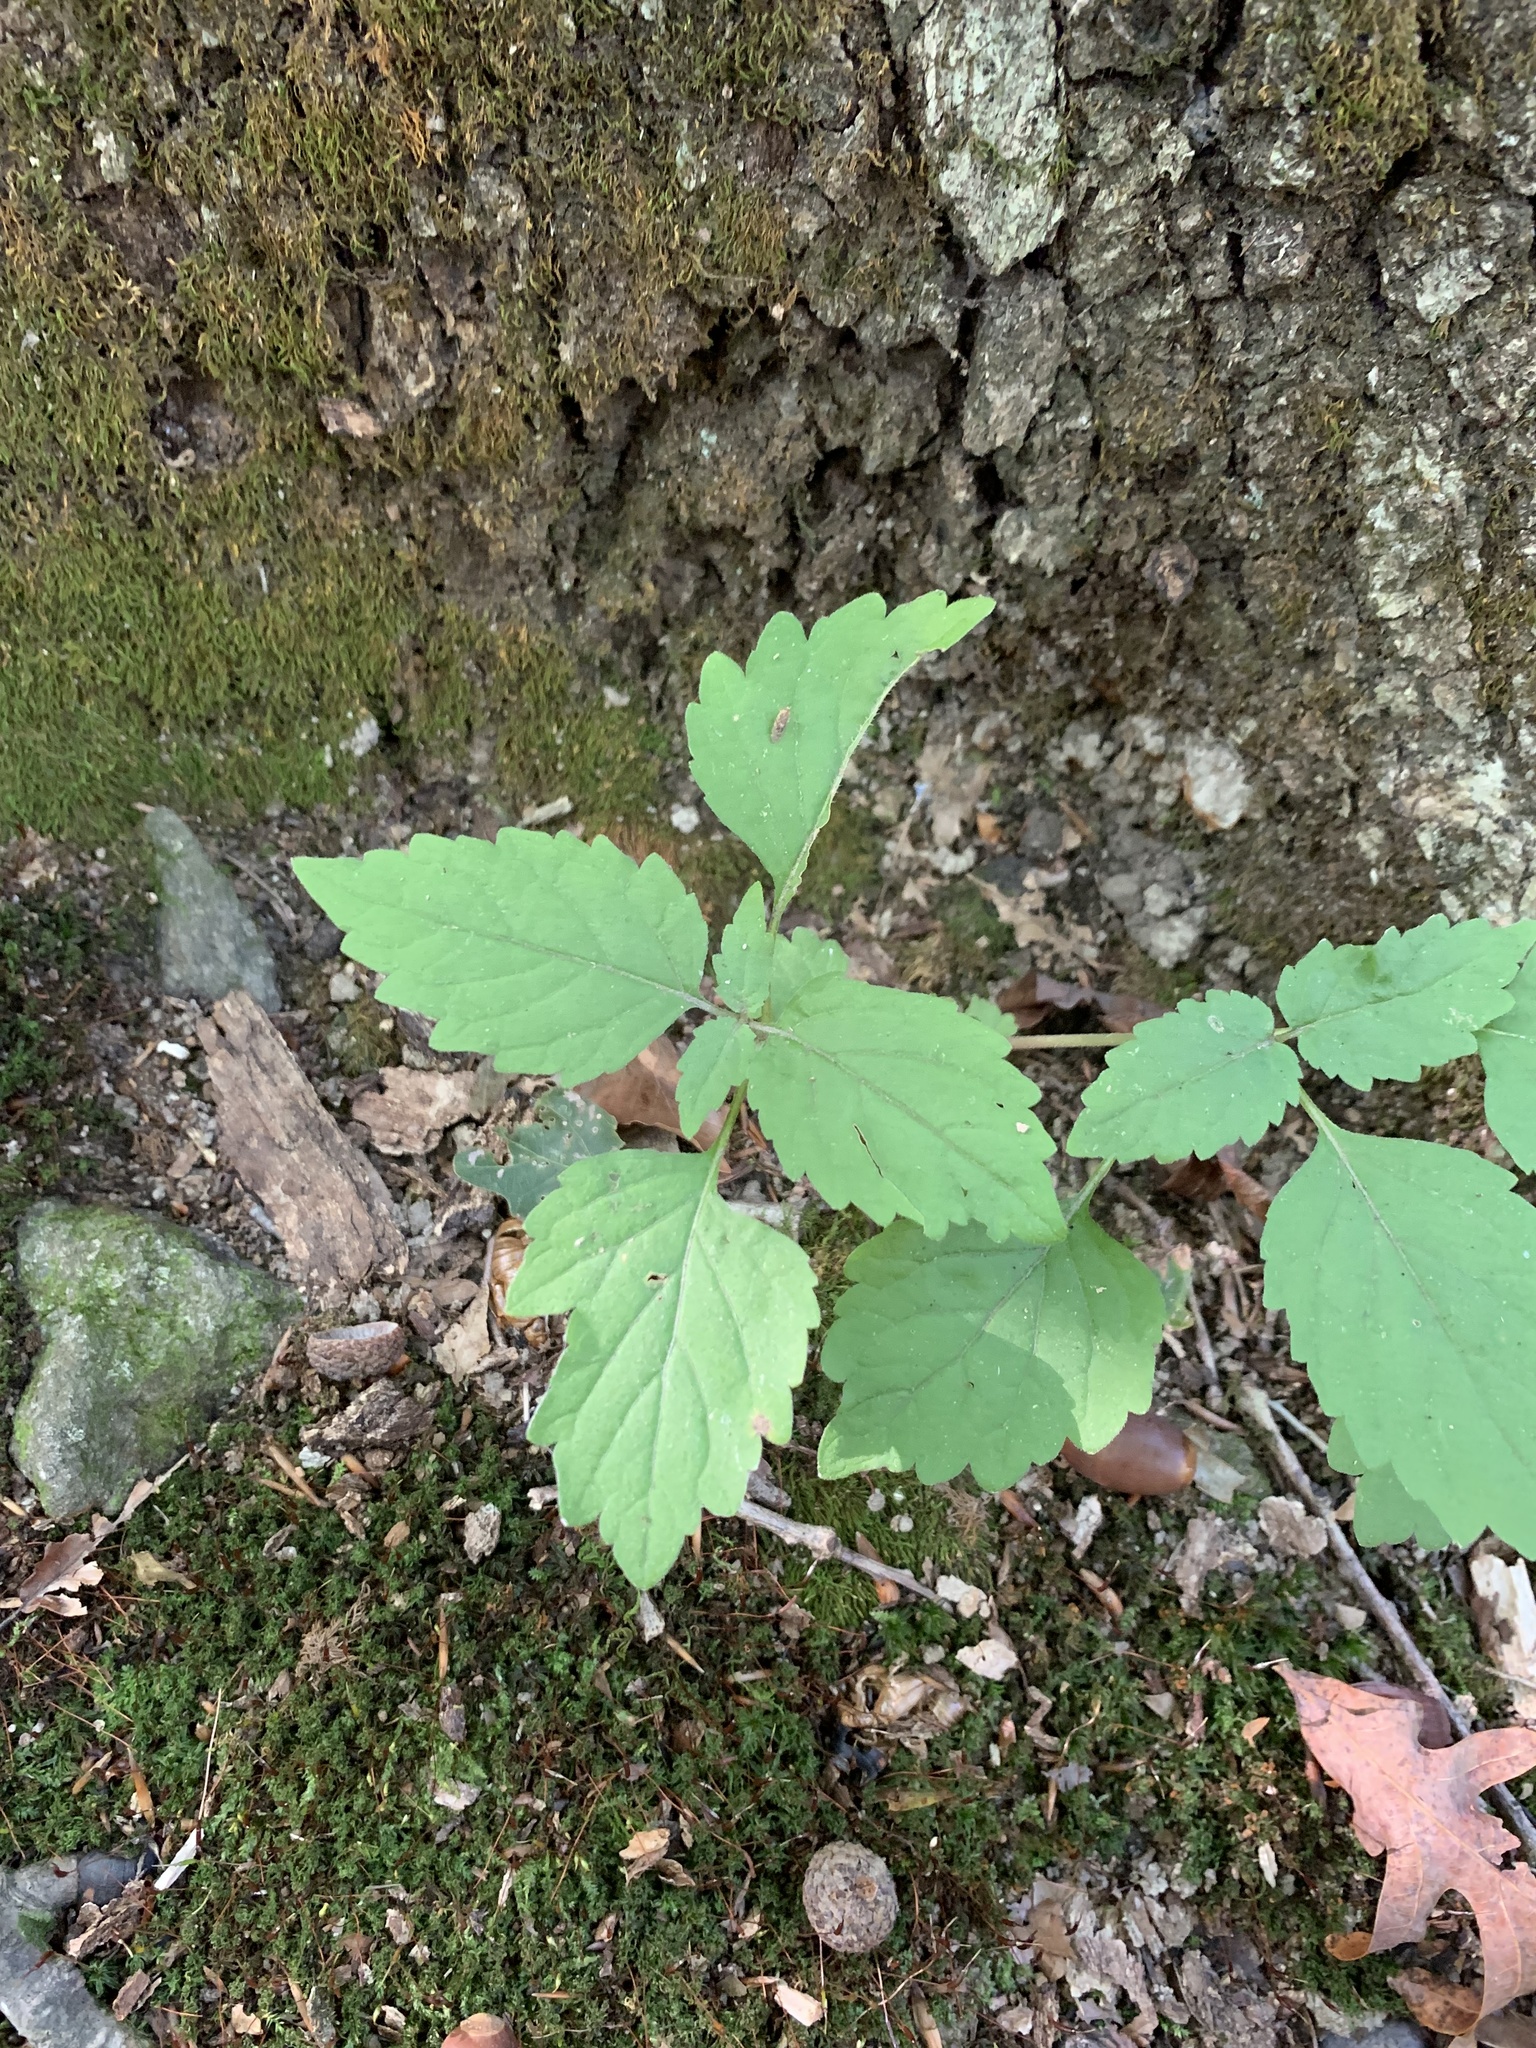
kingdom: Plantae
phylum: Tracheophyta
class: Magnoliopsida
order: Lamiales
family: Phrymaceae
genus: Phryma
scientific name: Phryma leptostachya
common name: American lopseed
